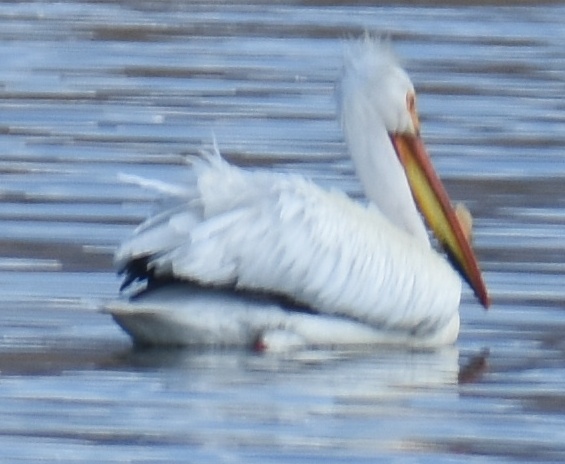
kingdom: Animalia
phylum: Chordata
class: Aves
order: Pelecaniformes
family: Pelecanidae
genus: Pelecanus
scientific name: Pelecanus erythrorhynchos
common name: American white pelican
